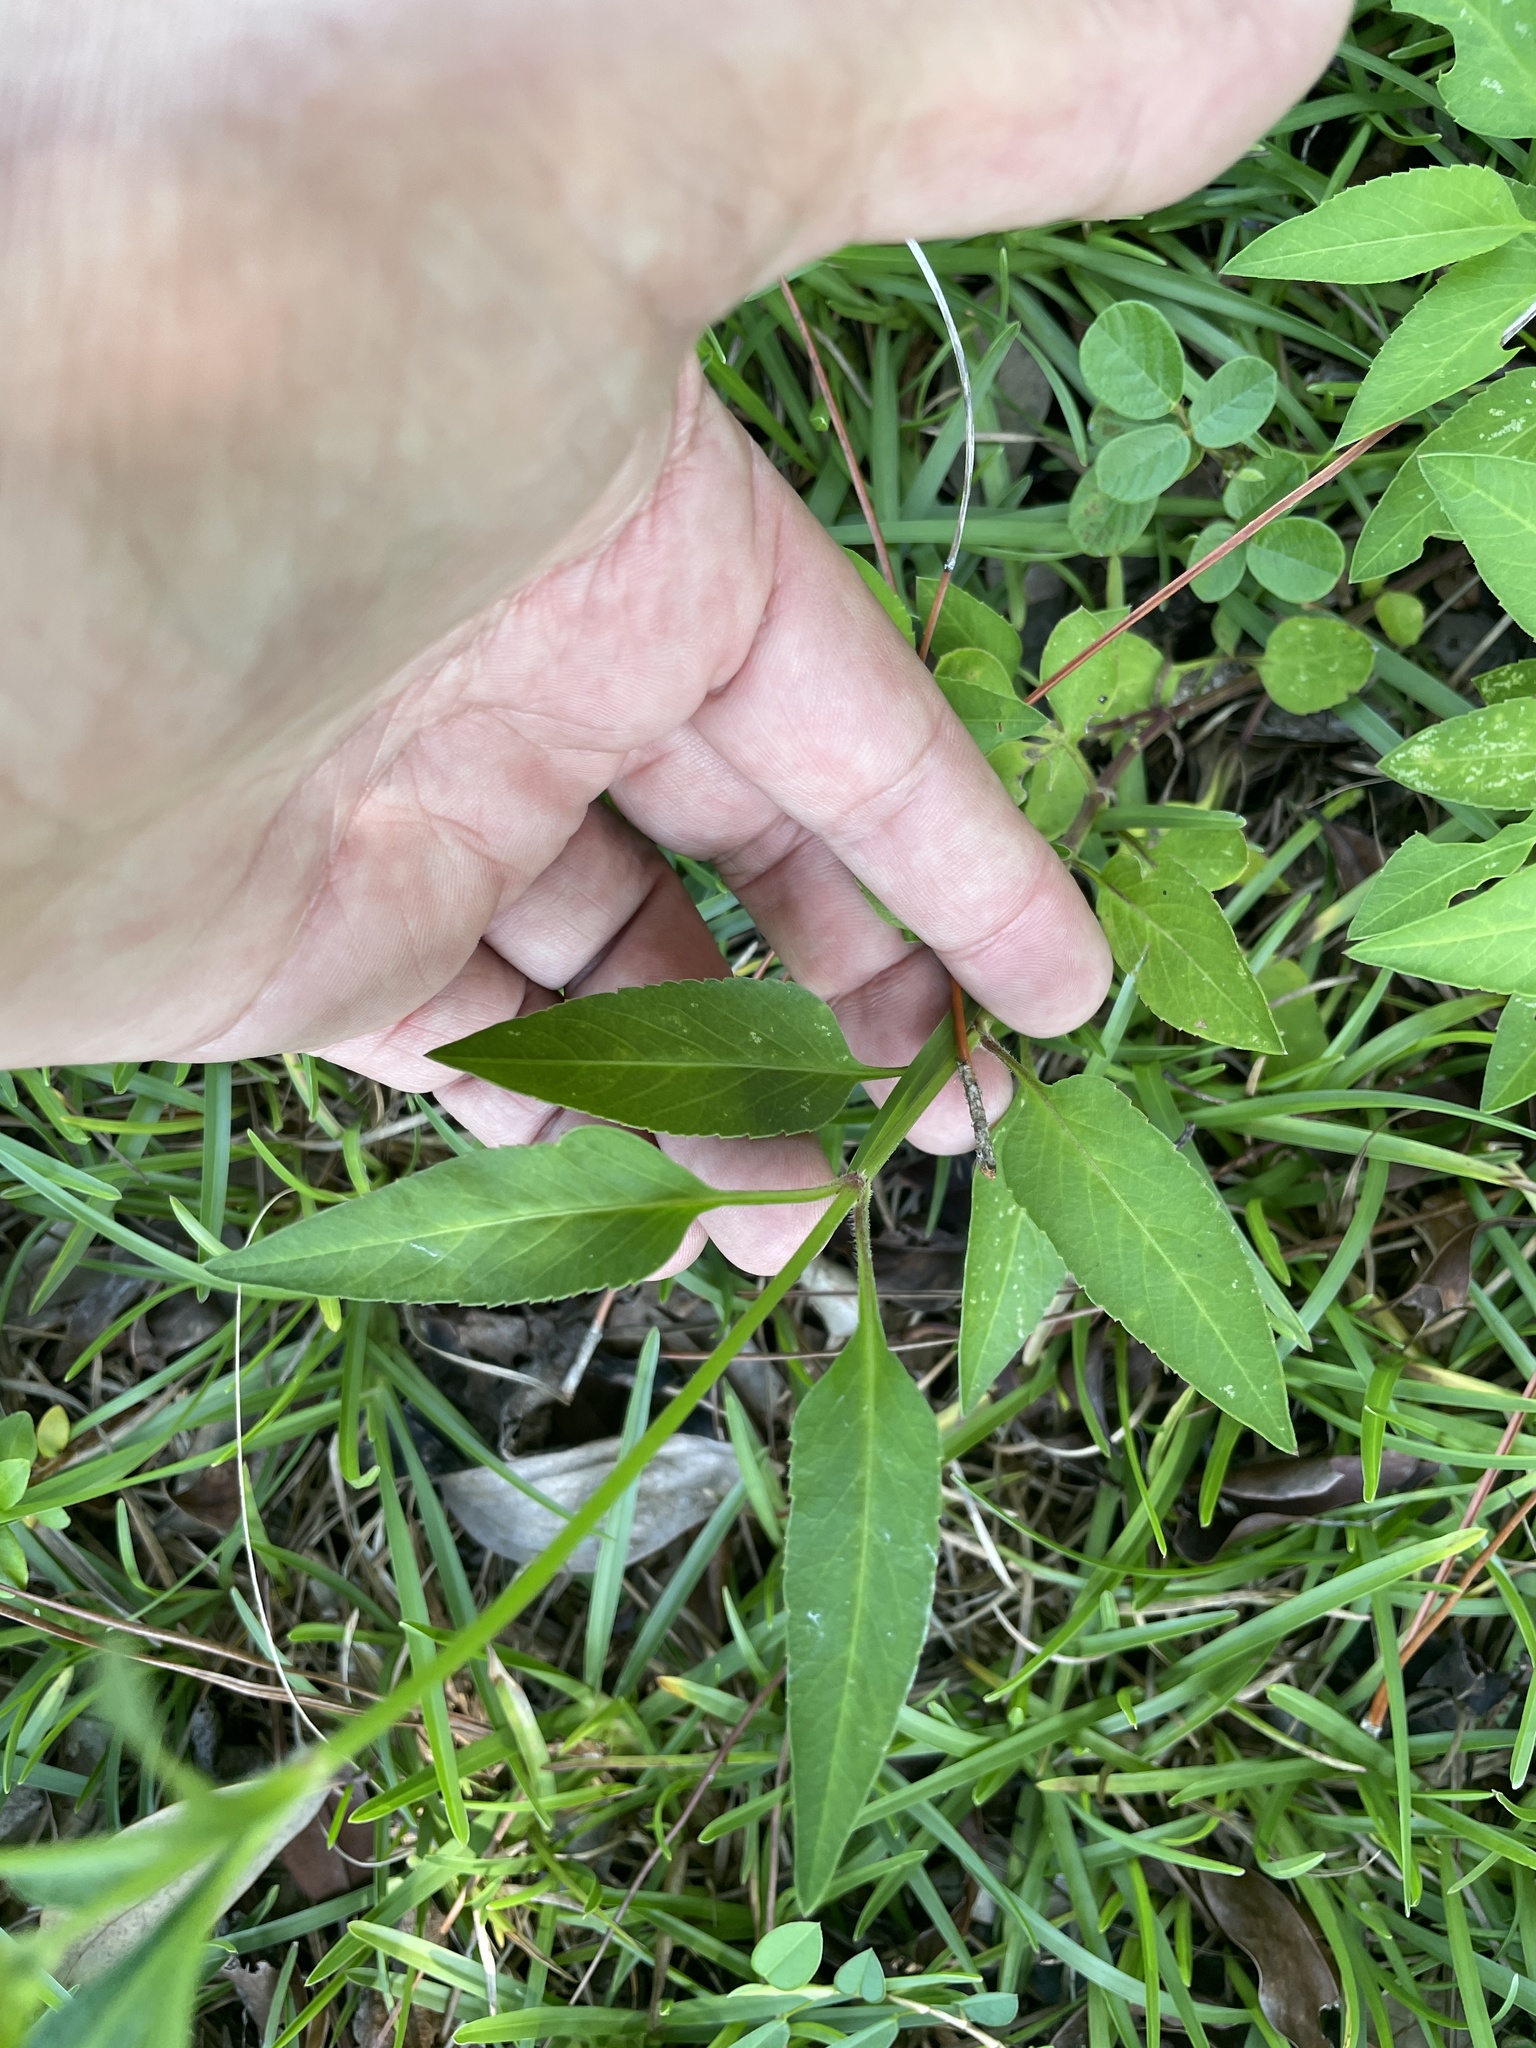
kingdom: Plantae
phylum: Tracheophyta
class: Magnoliopsida
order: Asterales
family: Asteraceae
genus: Bidens
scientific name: Bidens alba
